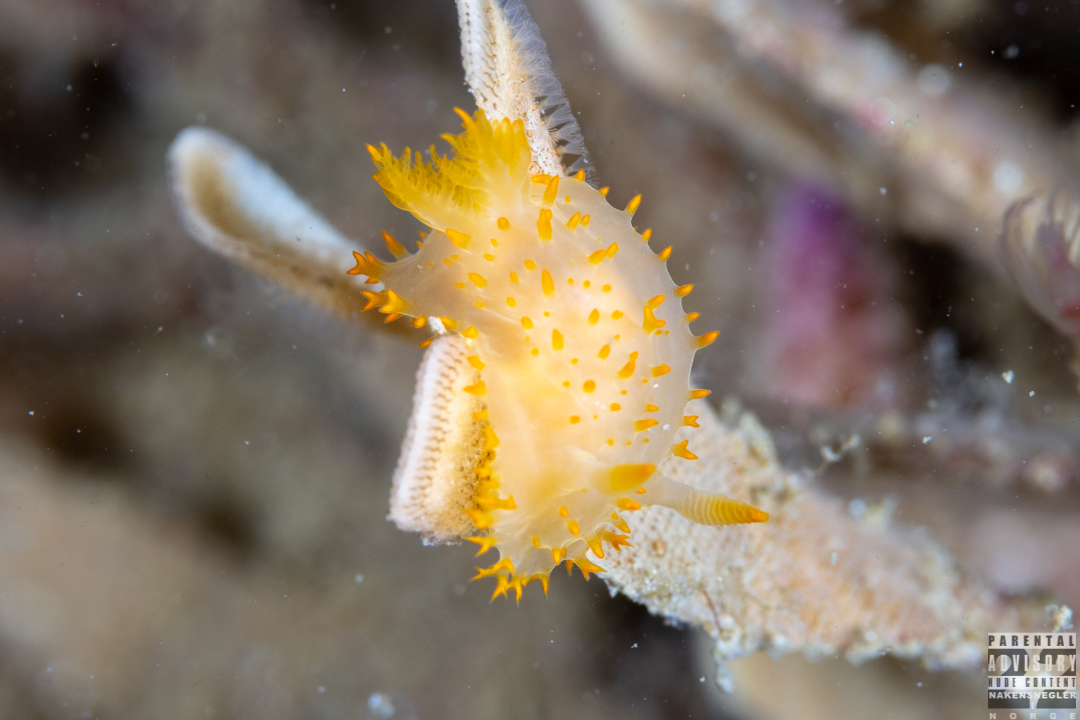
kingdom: Animalia
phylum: Mollusca
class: Gastropoda
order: Nudibranchia
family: Polyceridae
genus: Crimora
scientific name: Crimora papillata
